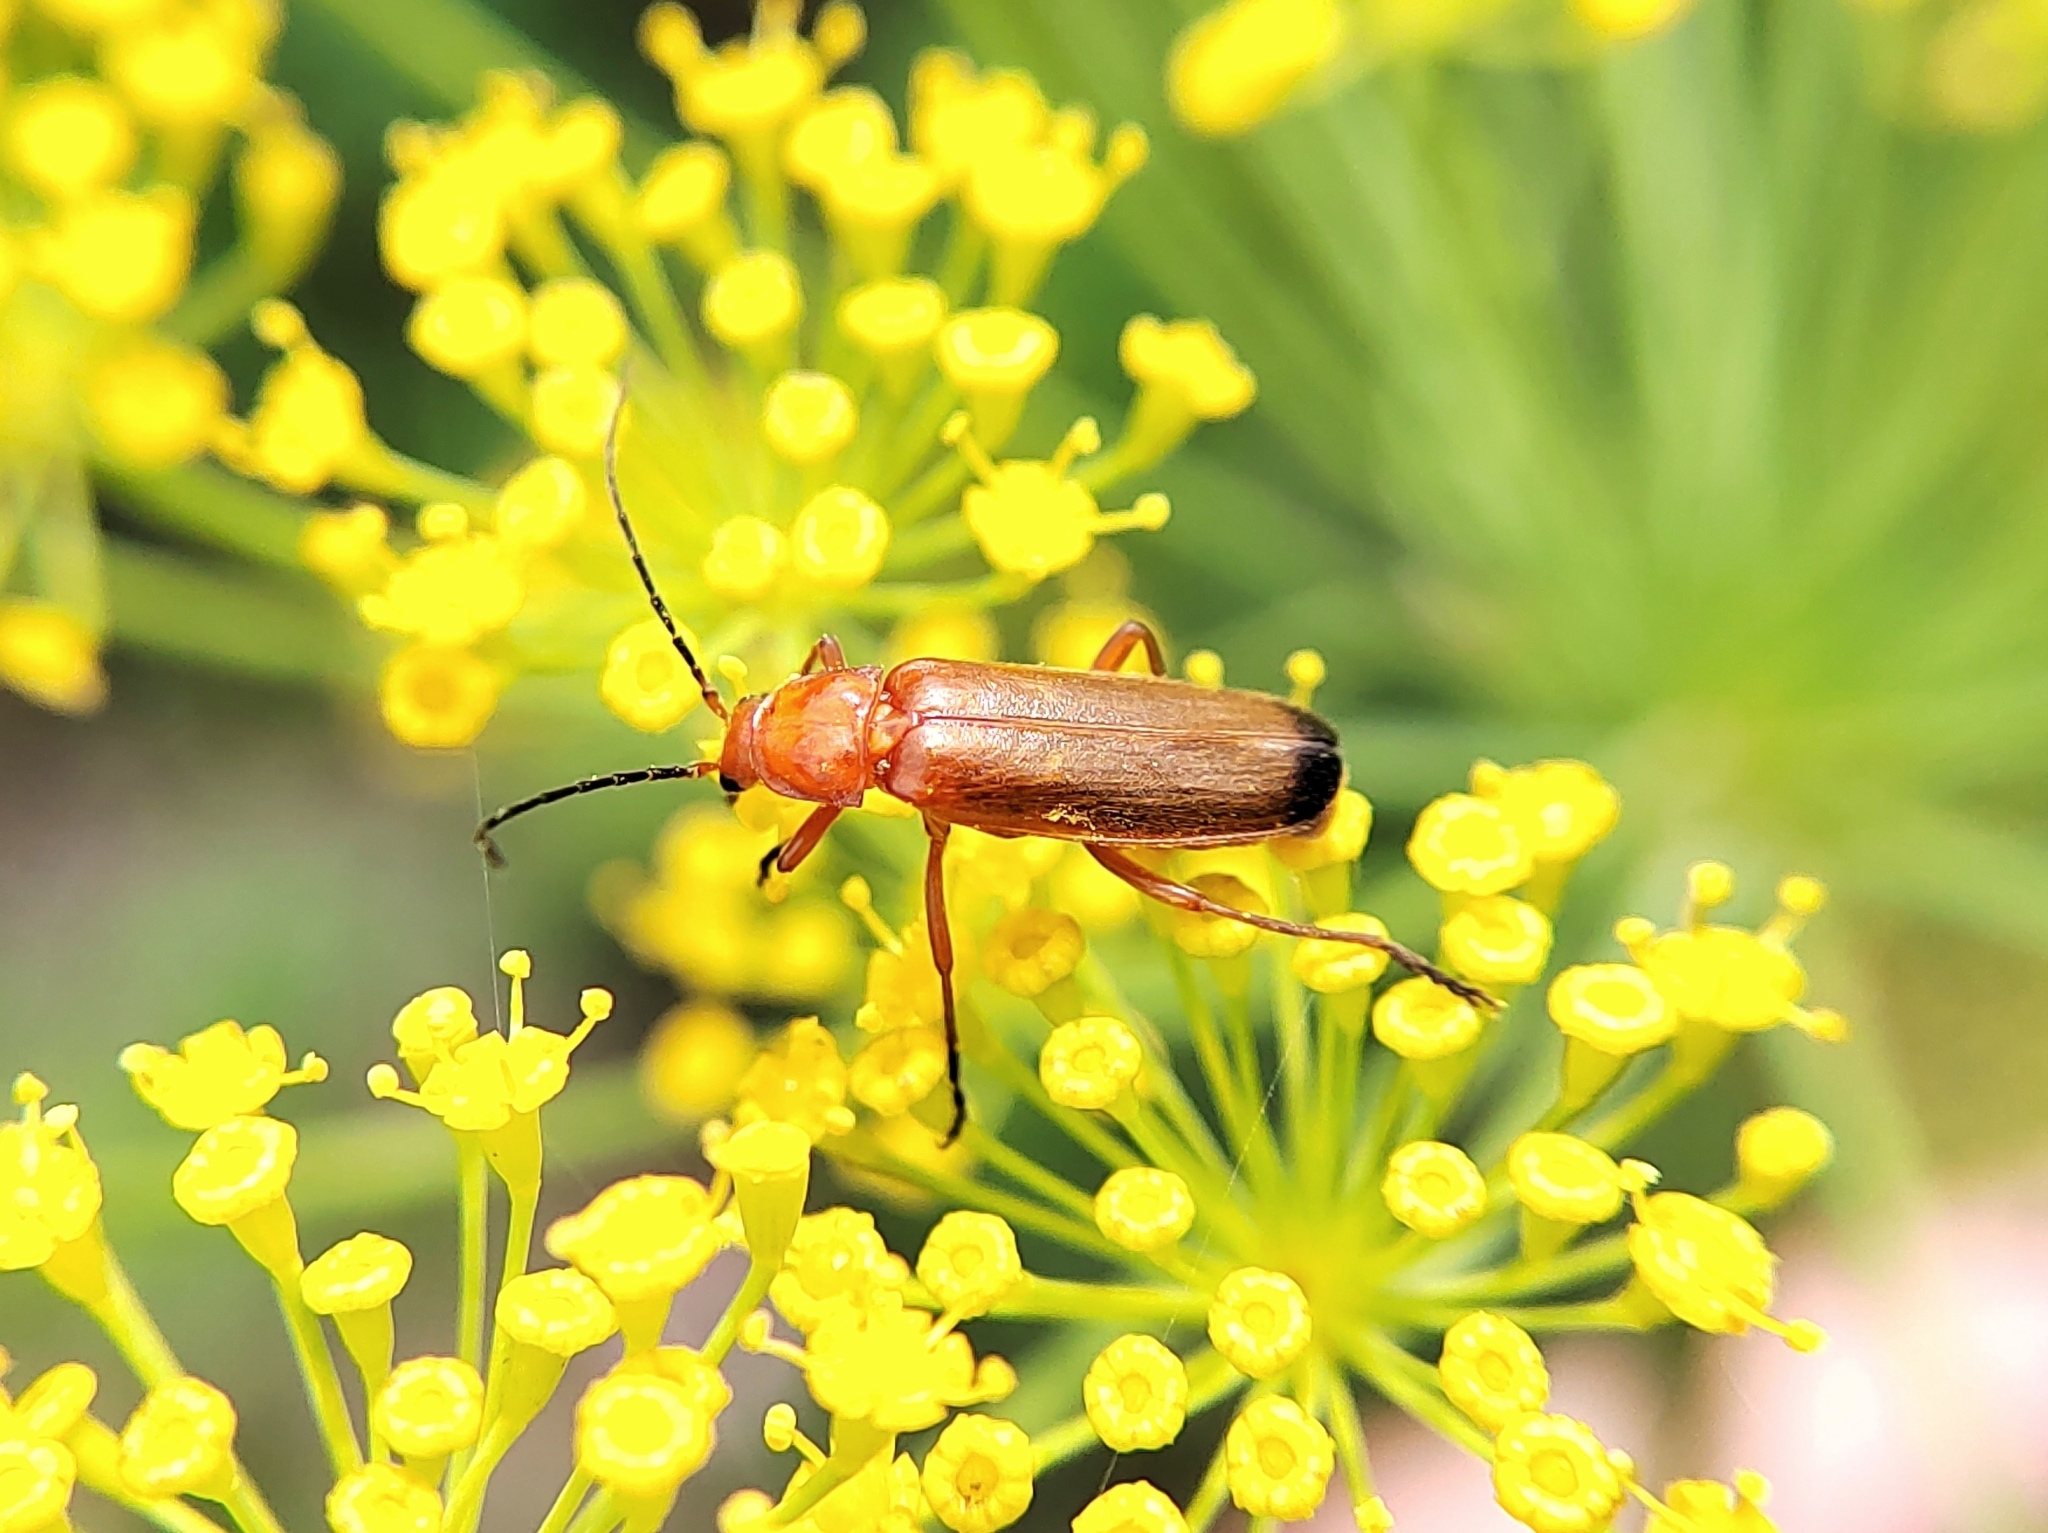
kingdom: Animalia
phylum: Arthropoda
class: Insecta
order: Coleoptera
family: Cantharidae
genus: Rhagonycha
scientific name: Rhagonycha fulva
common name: Common red soldier beetle
